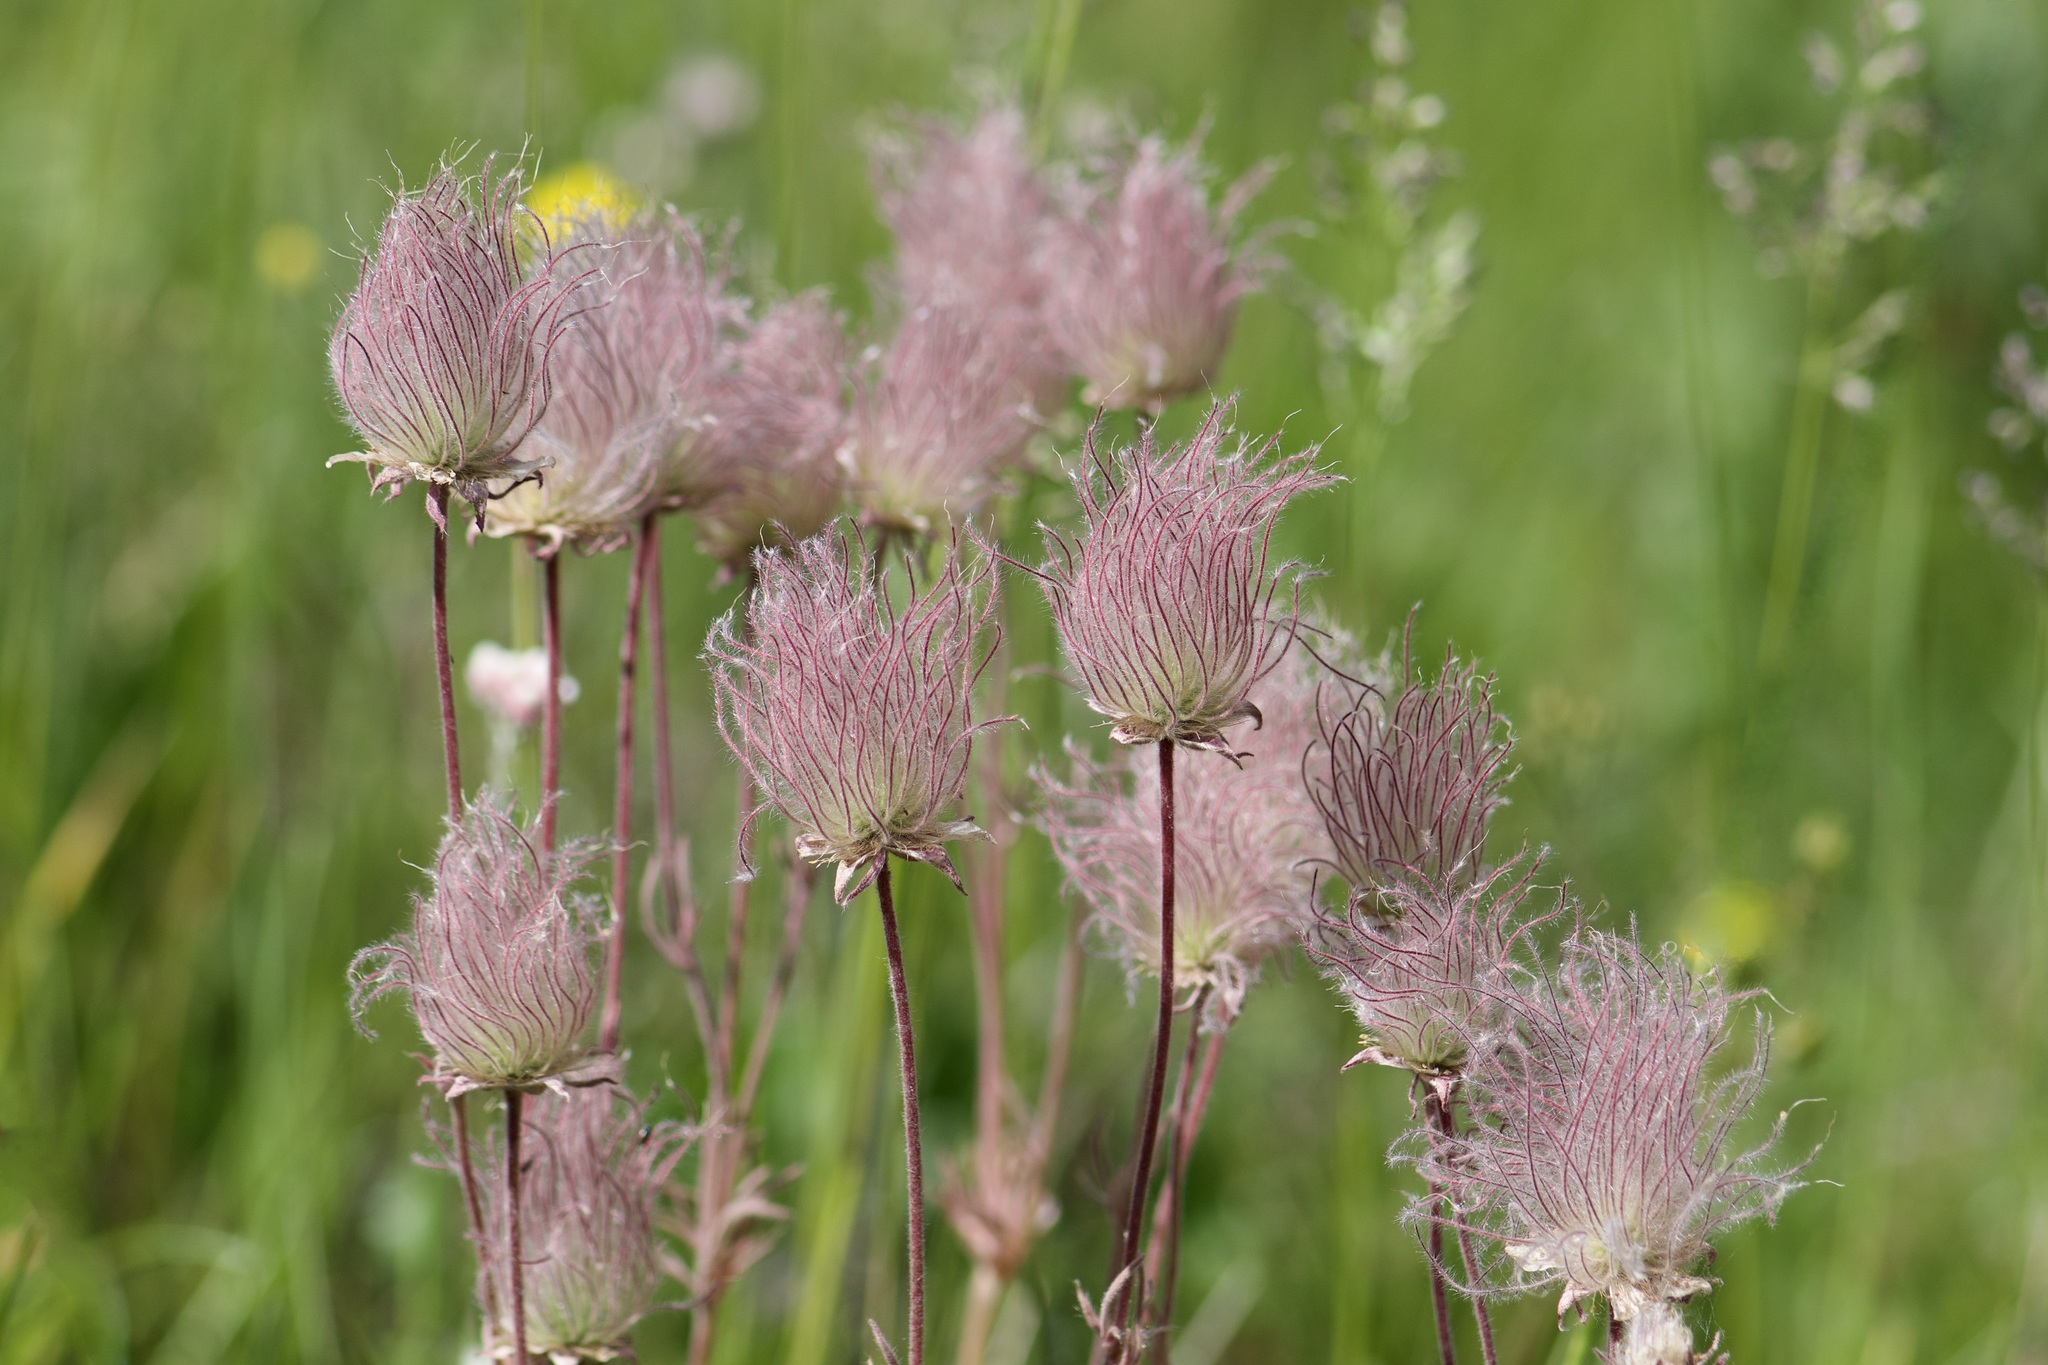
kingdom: Plantae
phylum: Tracheophyta
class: Magnoliopsida
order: Rosales
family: Rosaceae
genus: Geum
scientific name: Geum triflorum
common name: Old man's whiskers
